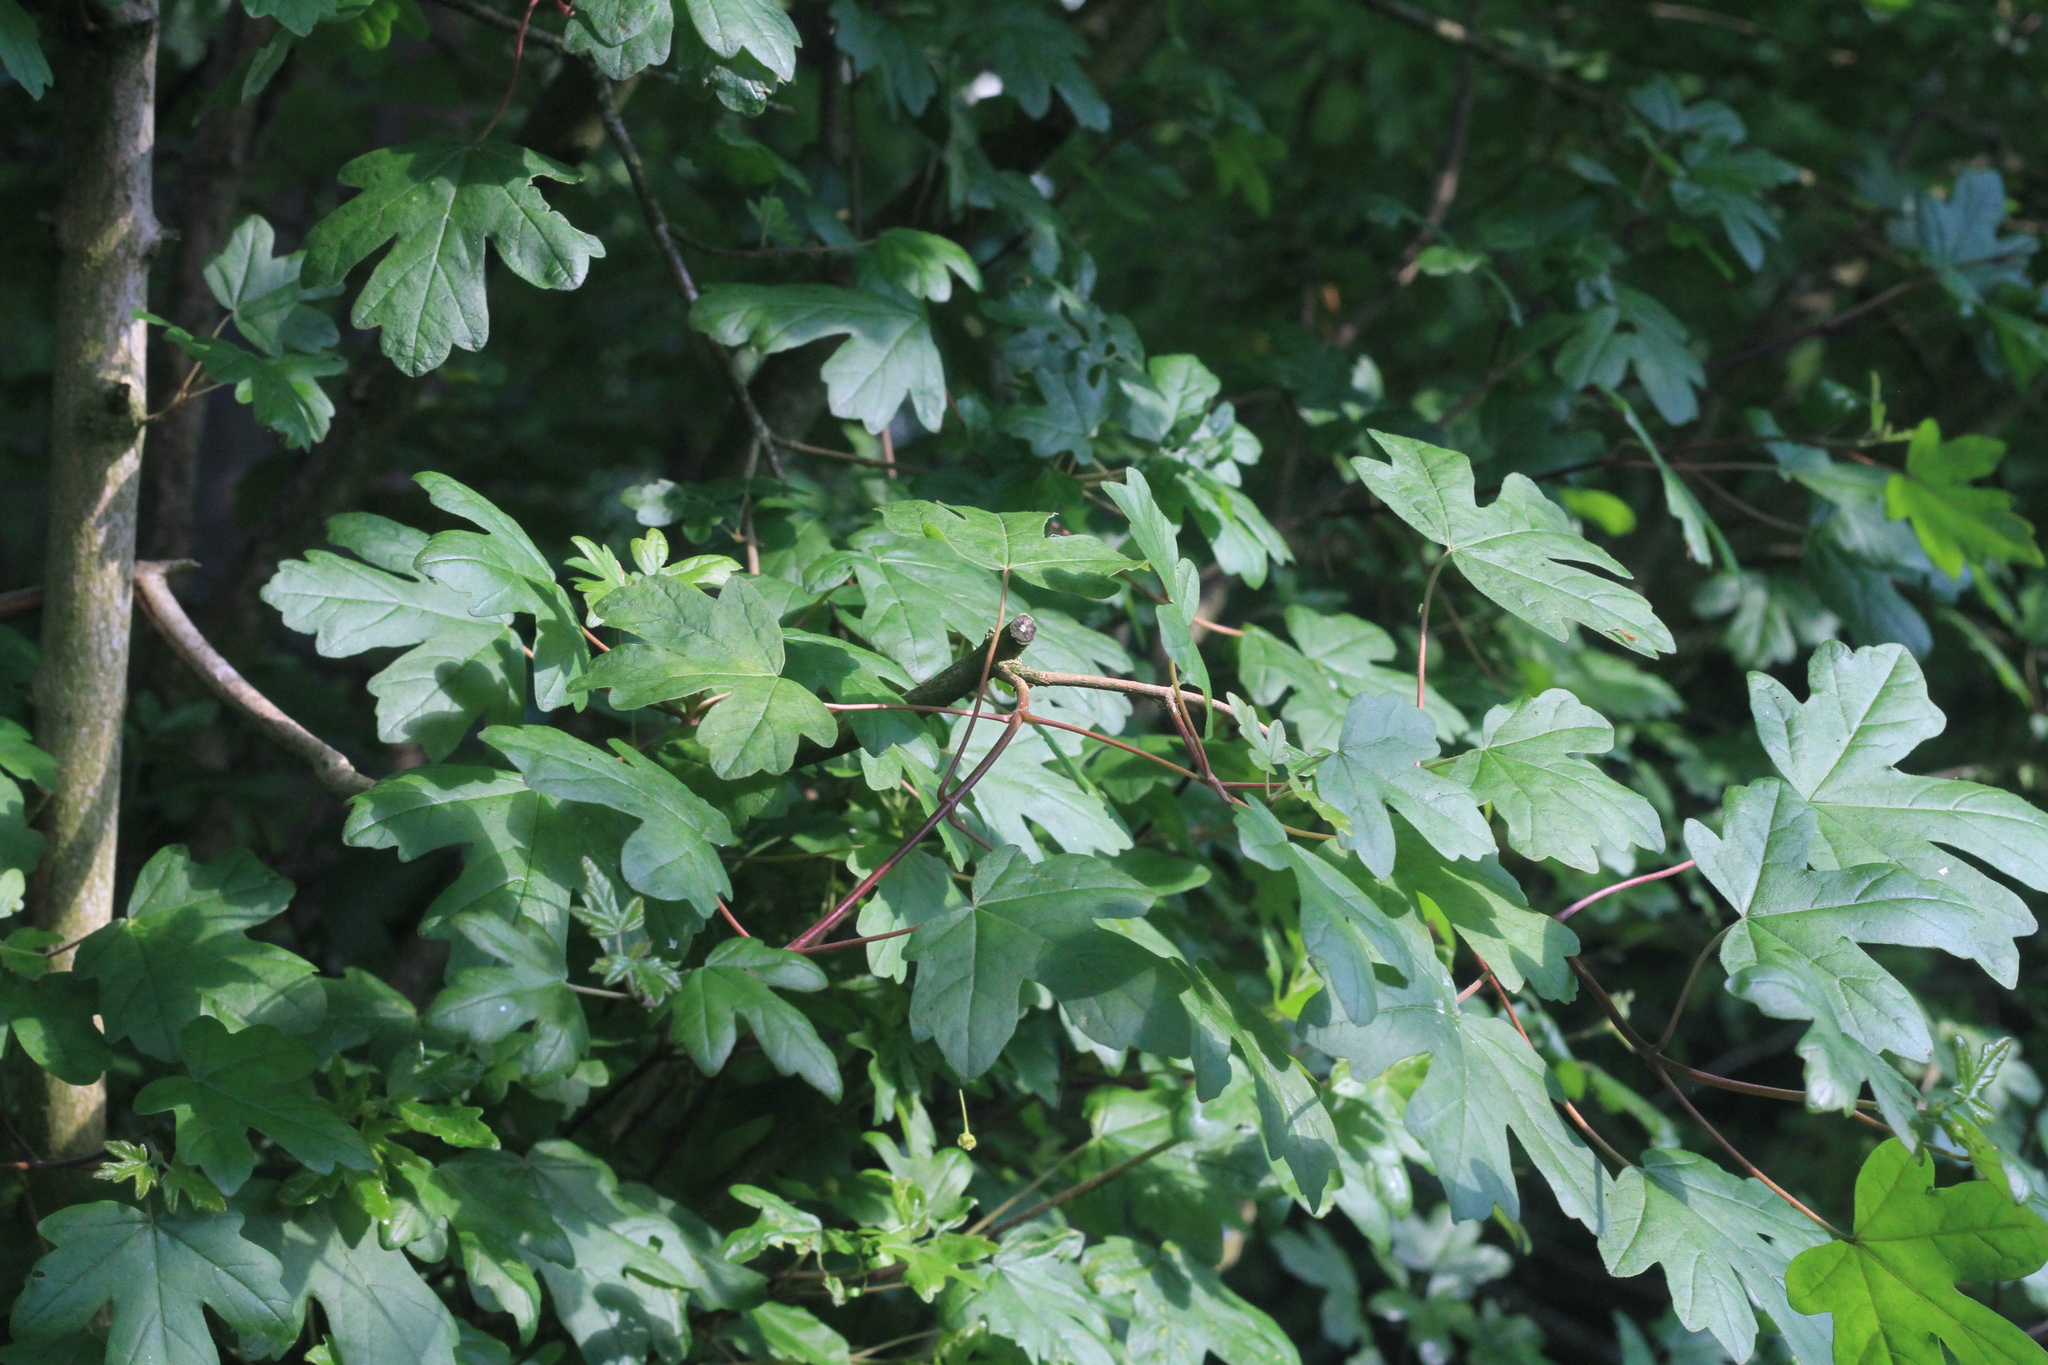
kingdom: Plantae
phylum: Tracheophyta
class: Magnoliopsida
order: Sapindales
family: Sapindaceae
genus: Acer
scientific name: Acer campestre
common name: Field maple
